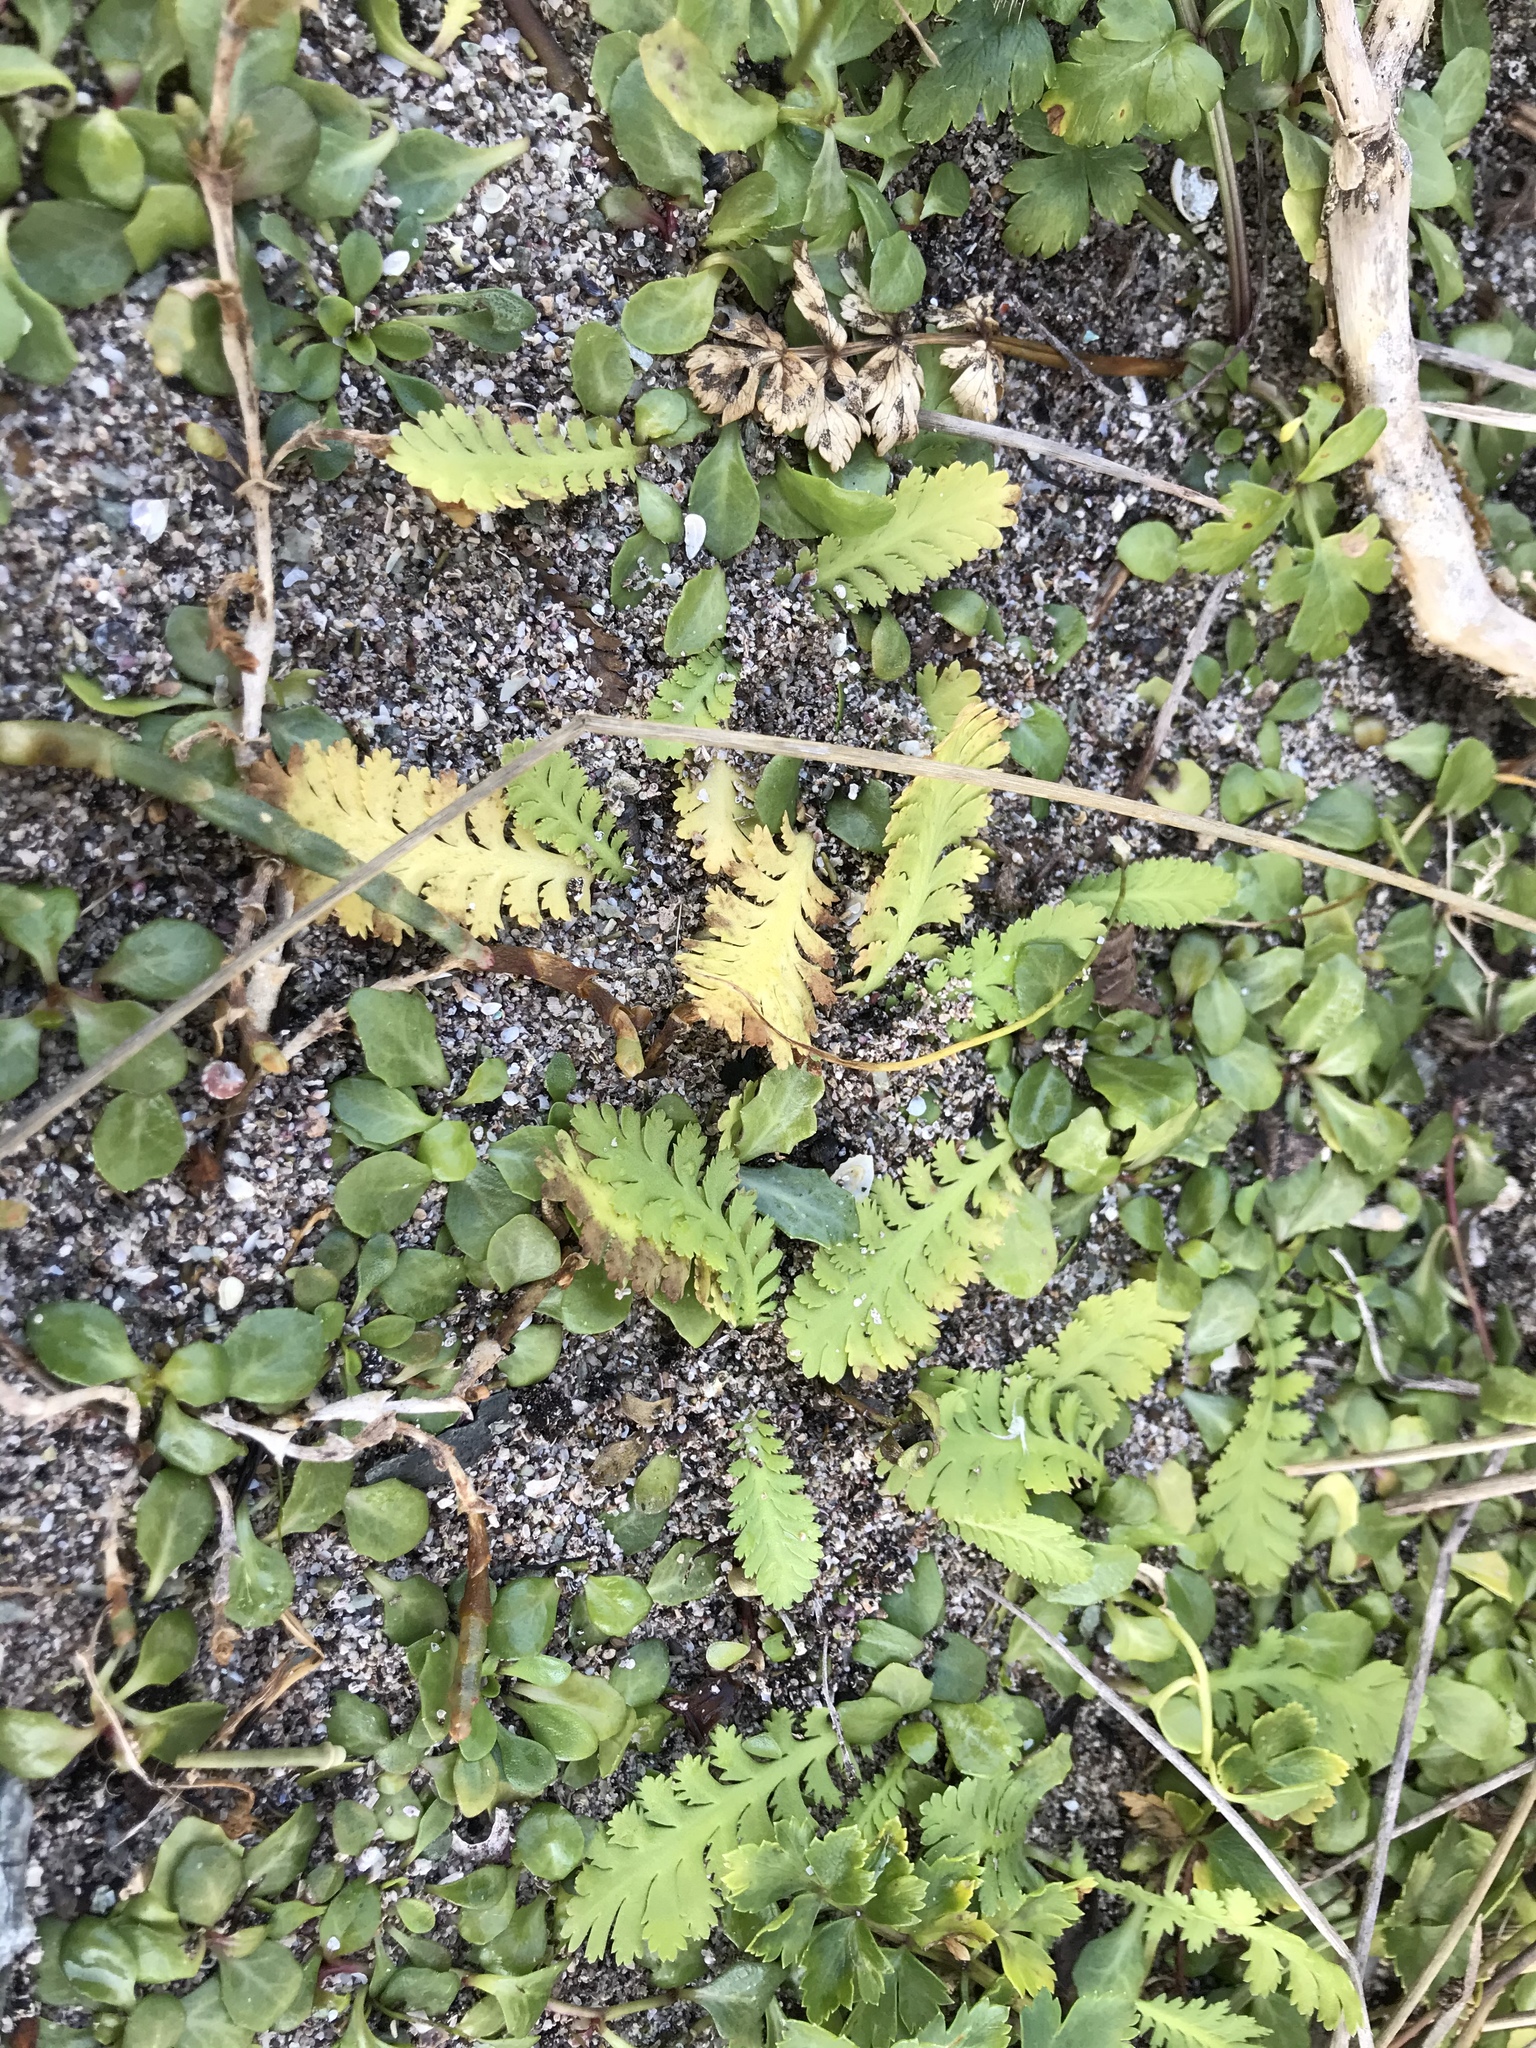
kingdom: Plantae
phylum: Tracheophyta
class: Magnoliopsida
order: Asterales
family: Asteraceae
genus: Leptinella
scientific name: Leptinella potentillina
